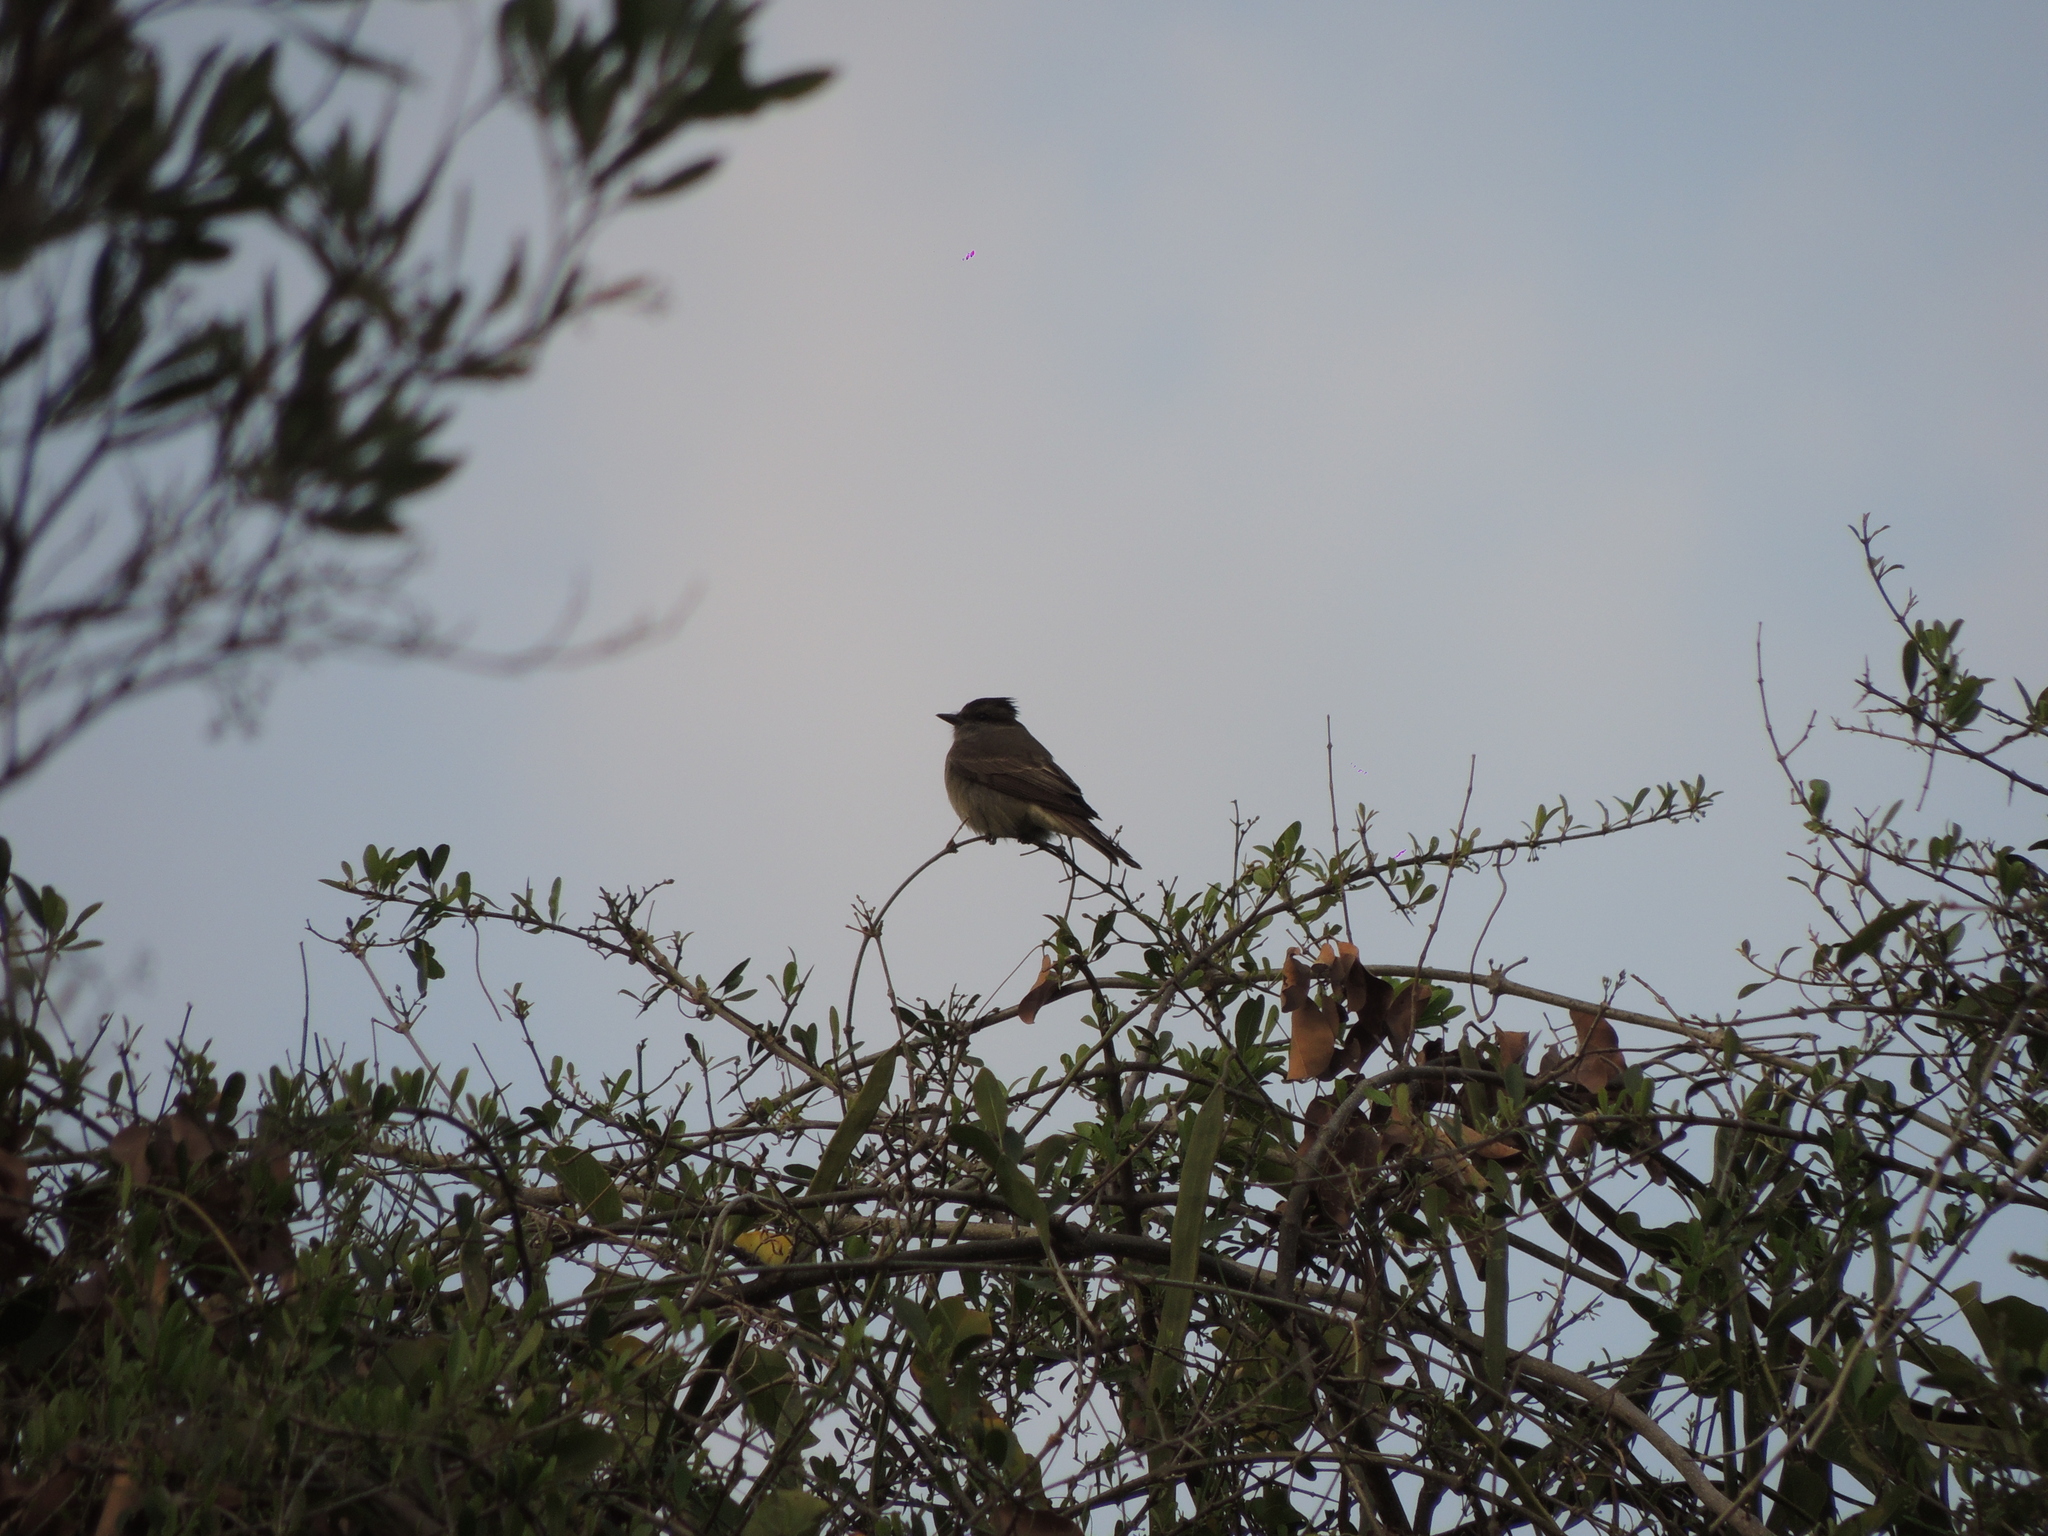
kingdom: Animalia
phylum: Chordata
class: Aves
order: Passeriformes
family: Tyrannidae
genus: Empidonomus
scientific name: Empidonomus aurantioatrocristatus
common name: Crowned slaty flycatcher
